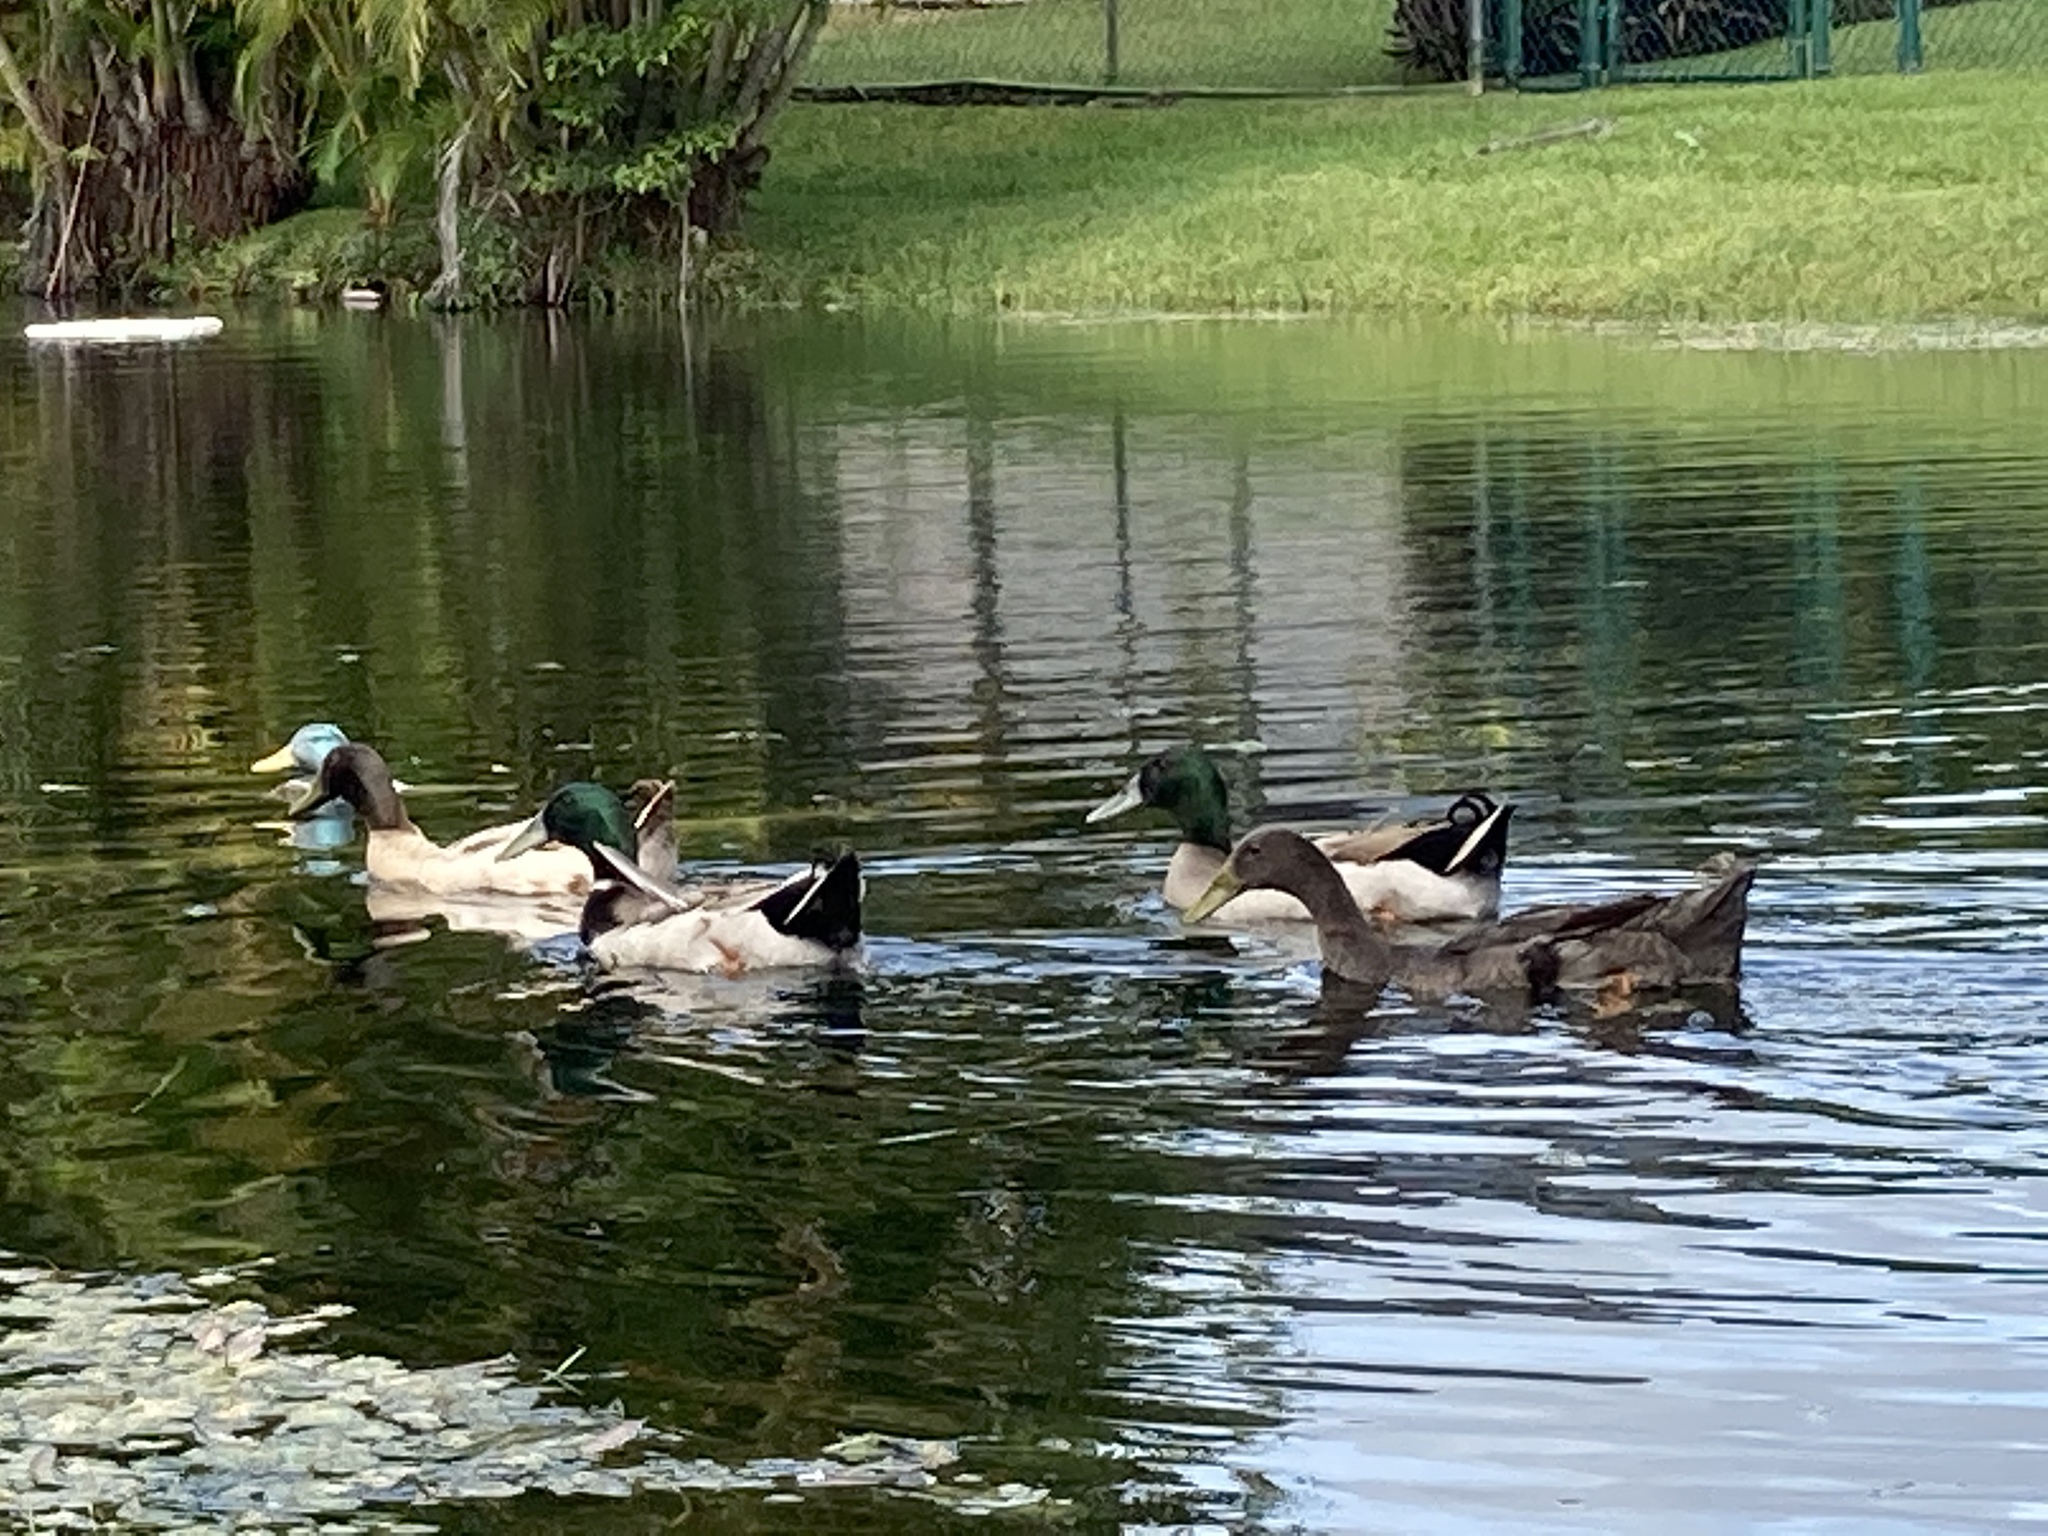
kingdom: Animalia
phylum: Chordata
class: Aves
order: Anseriformes
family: Anatidae
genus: Anas
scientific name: Anas platyrhynchos
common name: Mallard
